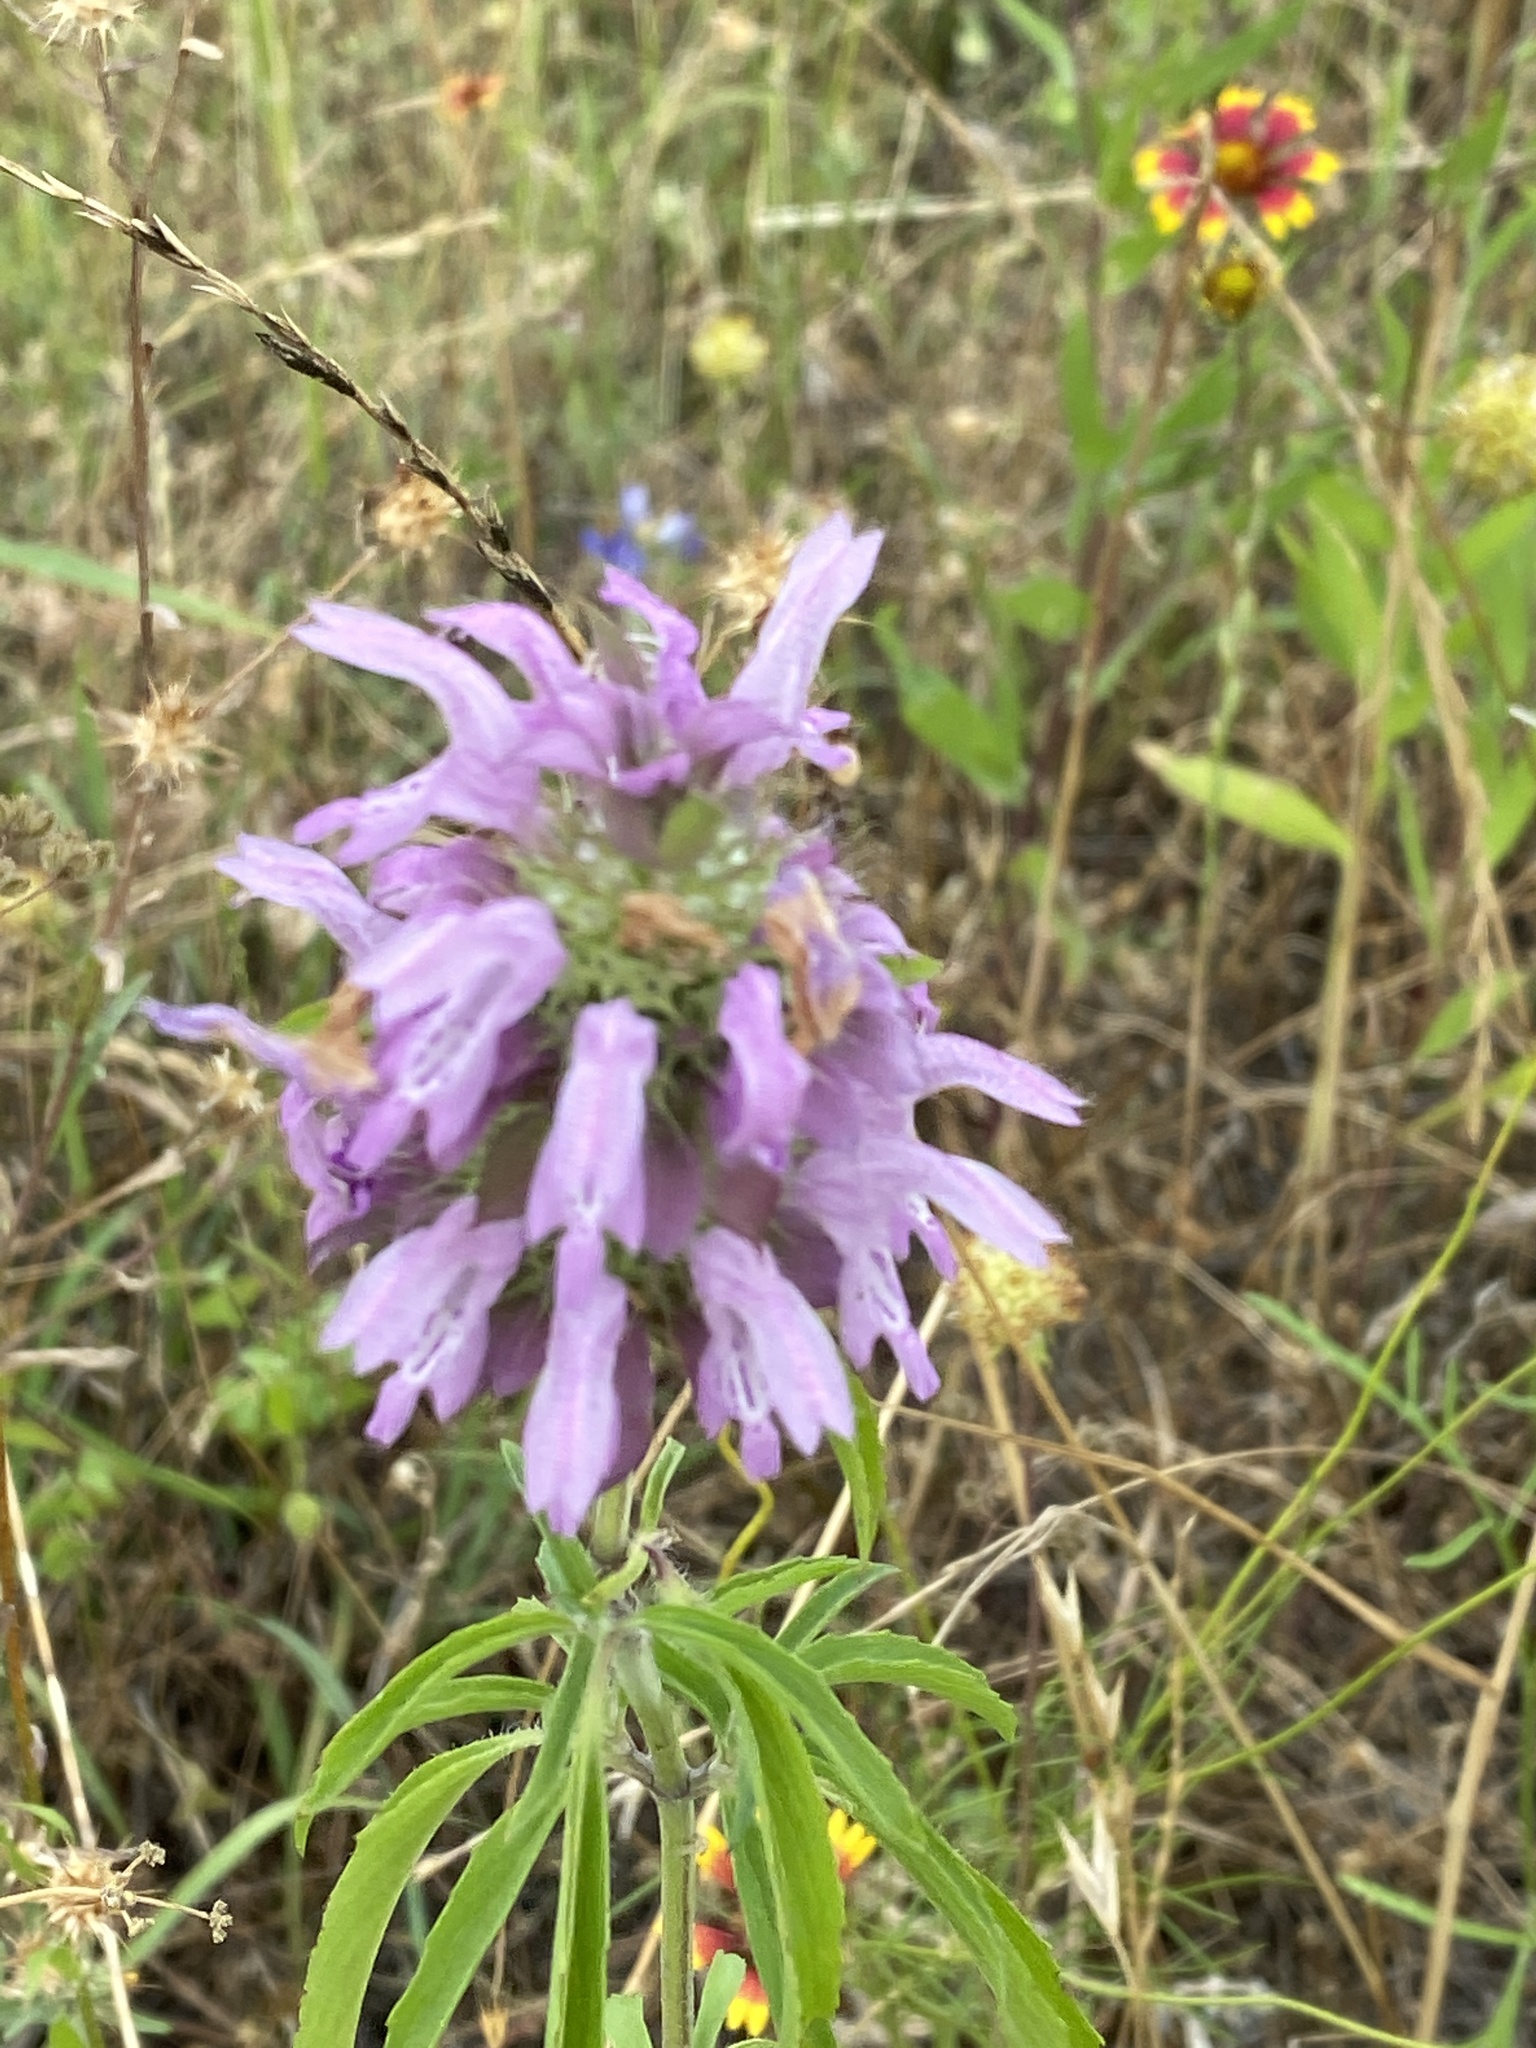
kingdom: Plantae
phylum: Tracheophyta
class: Magnoliopsida
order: Lamiales
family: Lamiaceae
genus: Monarda
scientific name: Monarda citriodora
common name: Lemon beebalm
